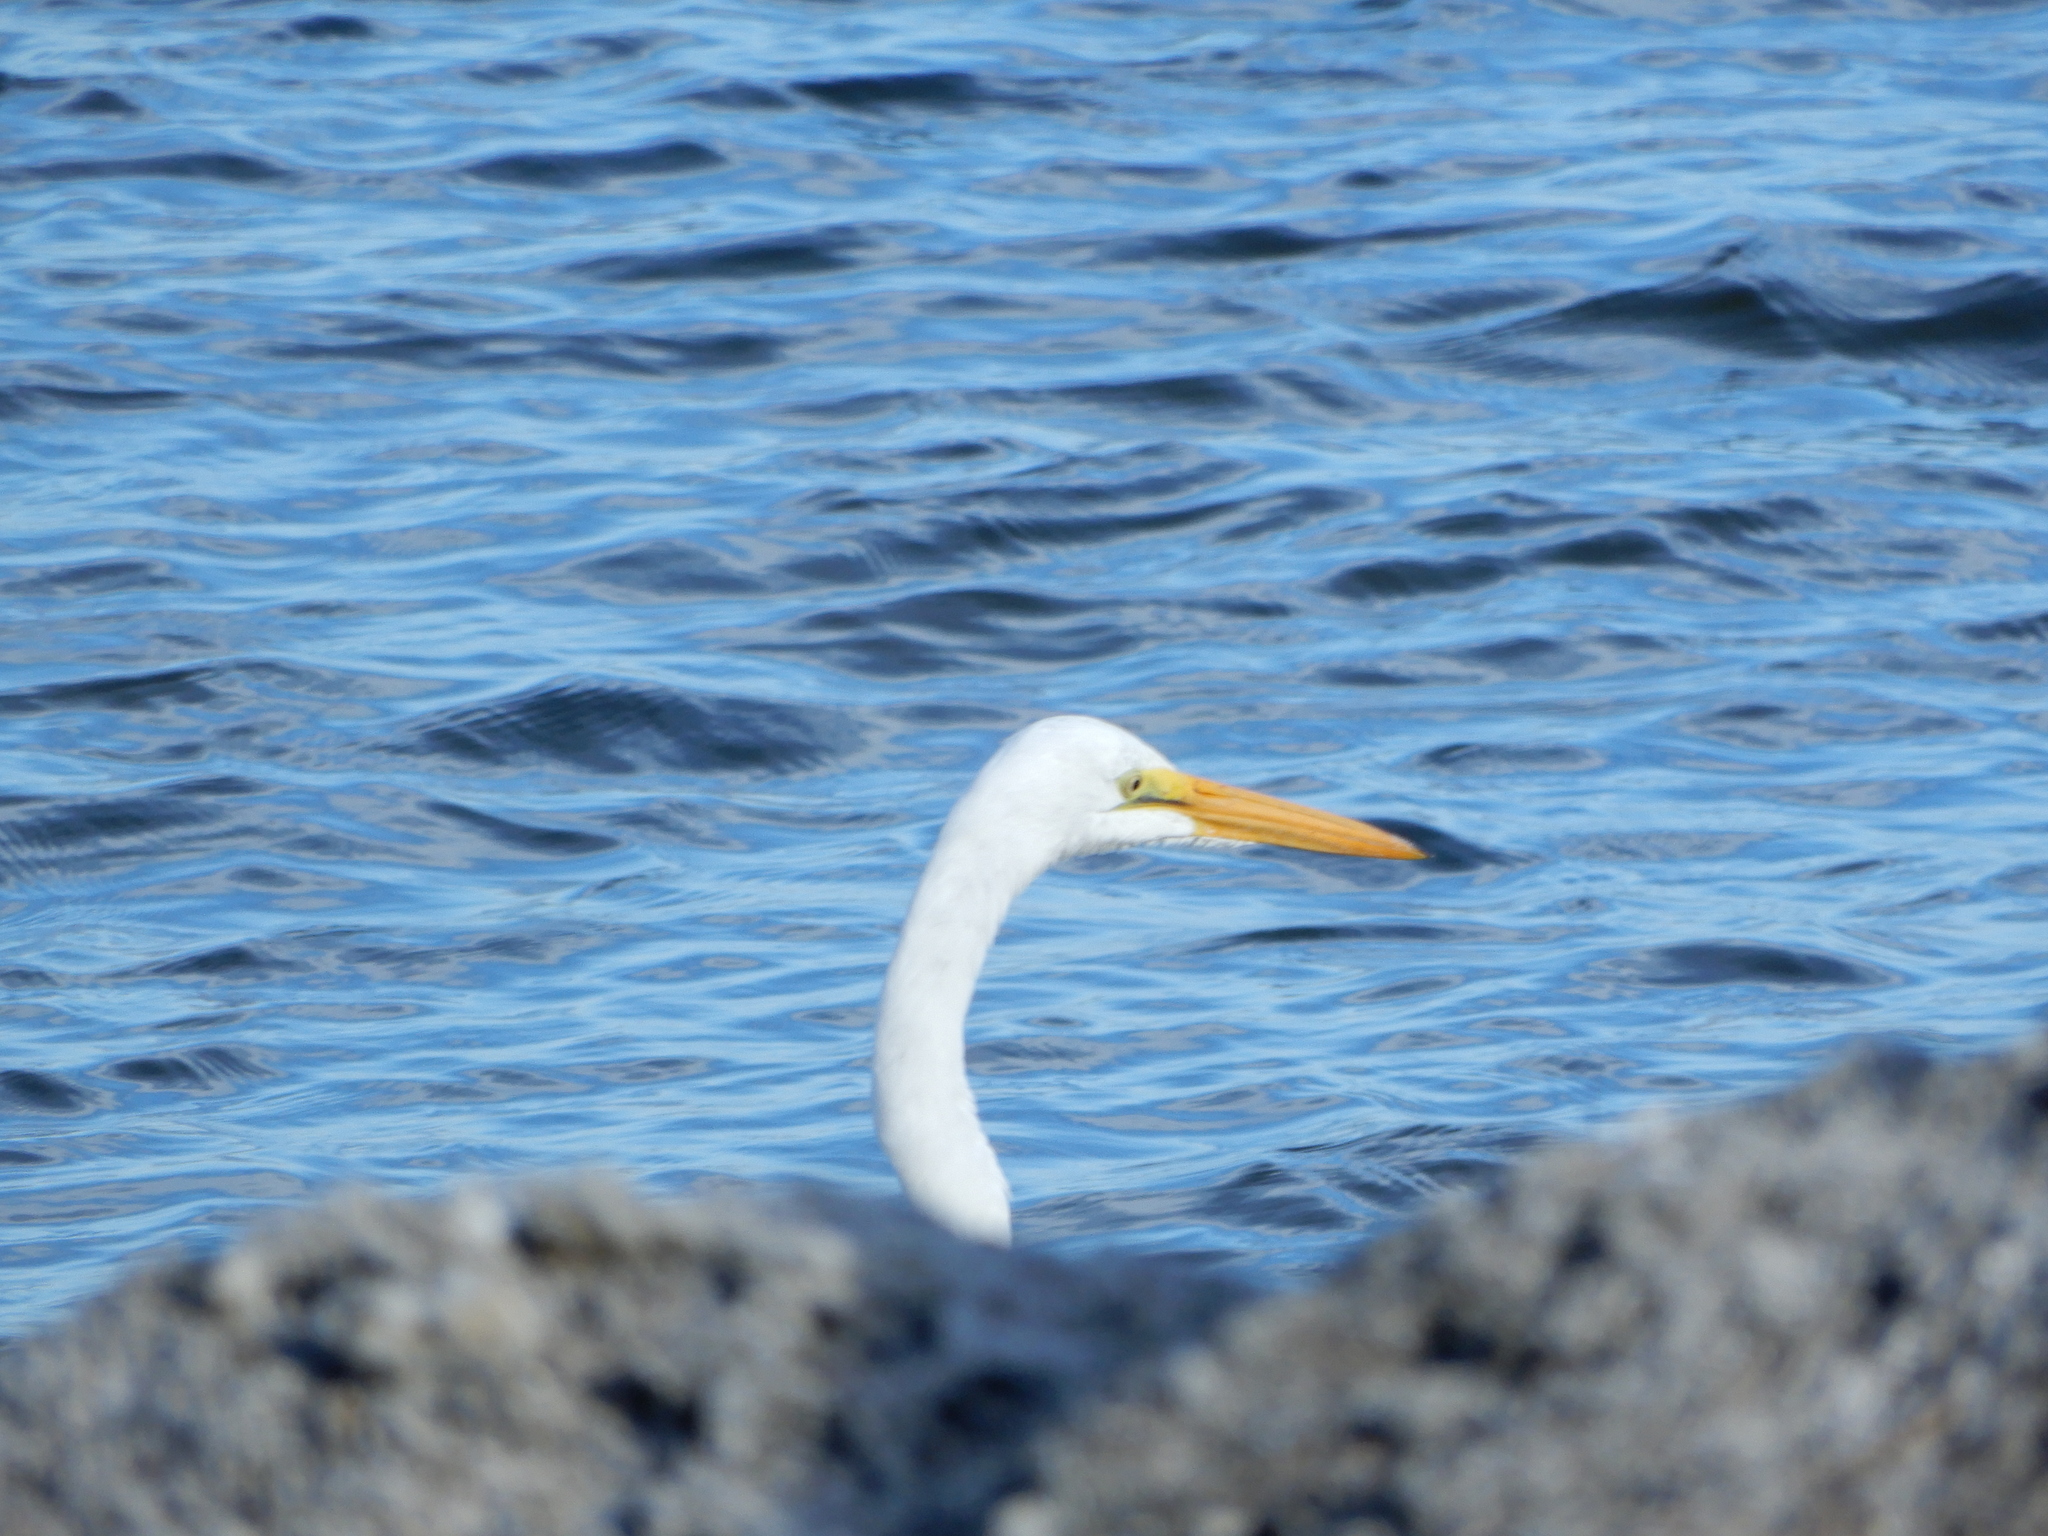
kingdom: Animalia
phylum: Chordata
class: Aves
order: Pelecaniformes
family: Ardeidae
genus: Ardea
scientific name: Ardea alba
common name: Great egret
